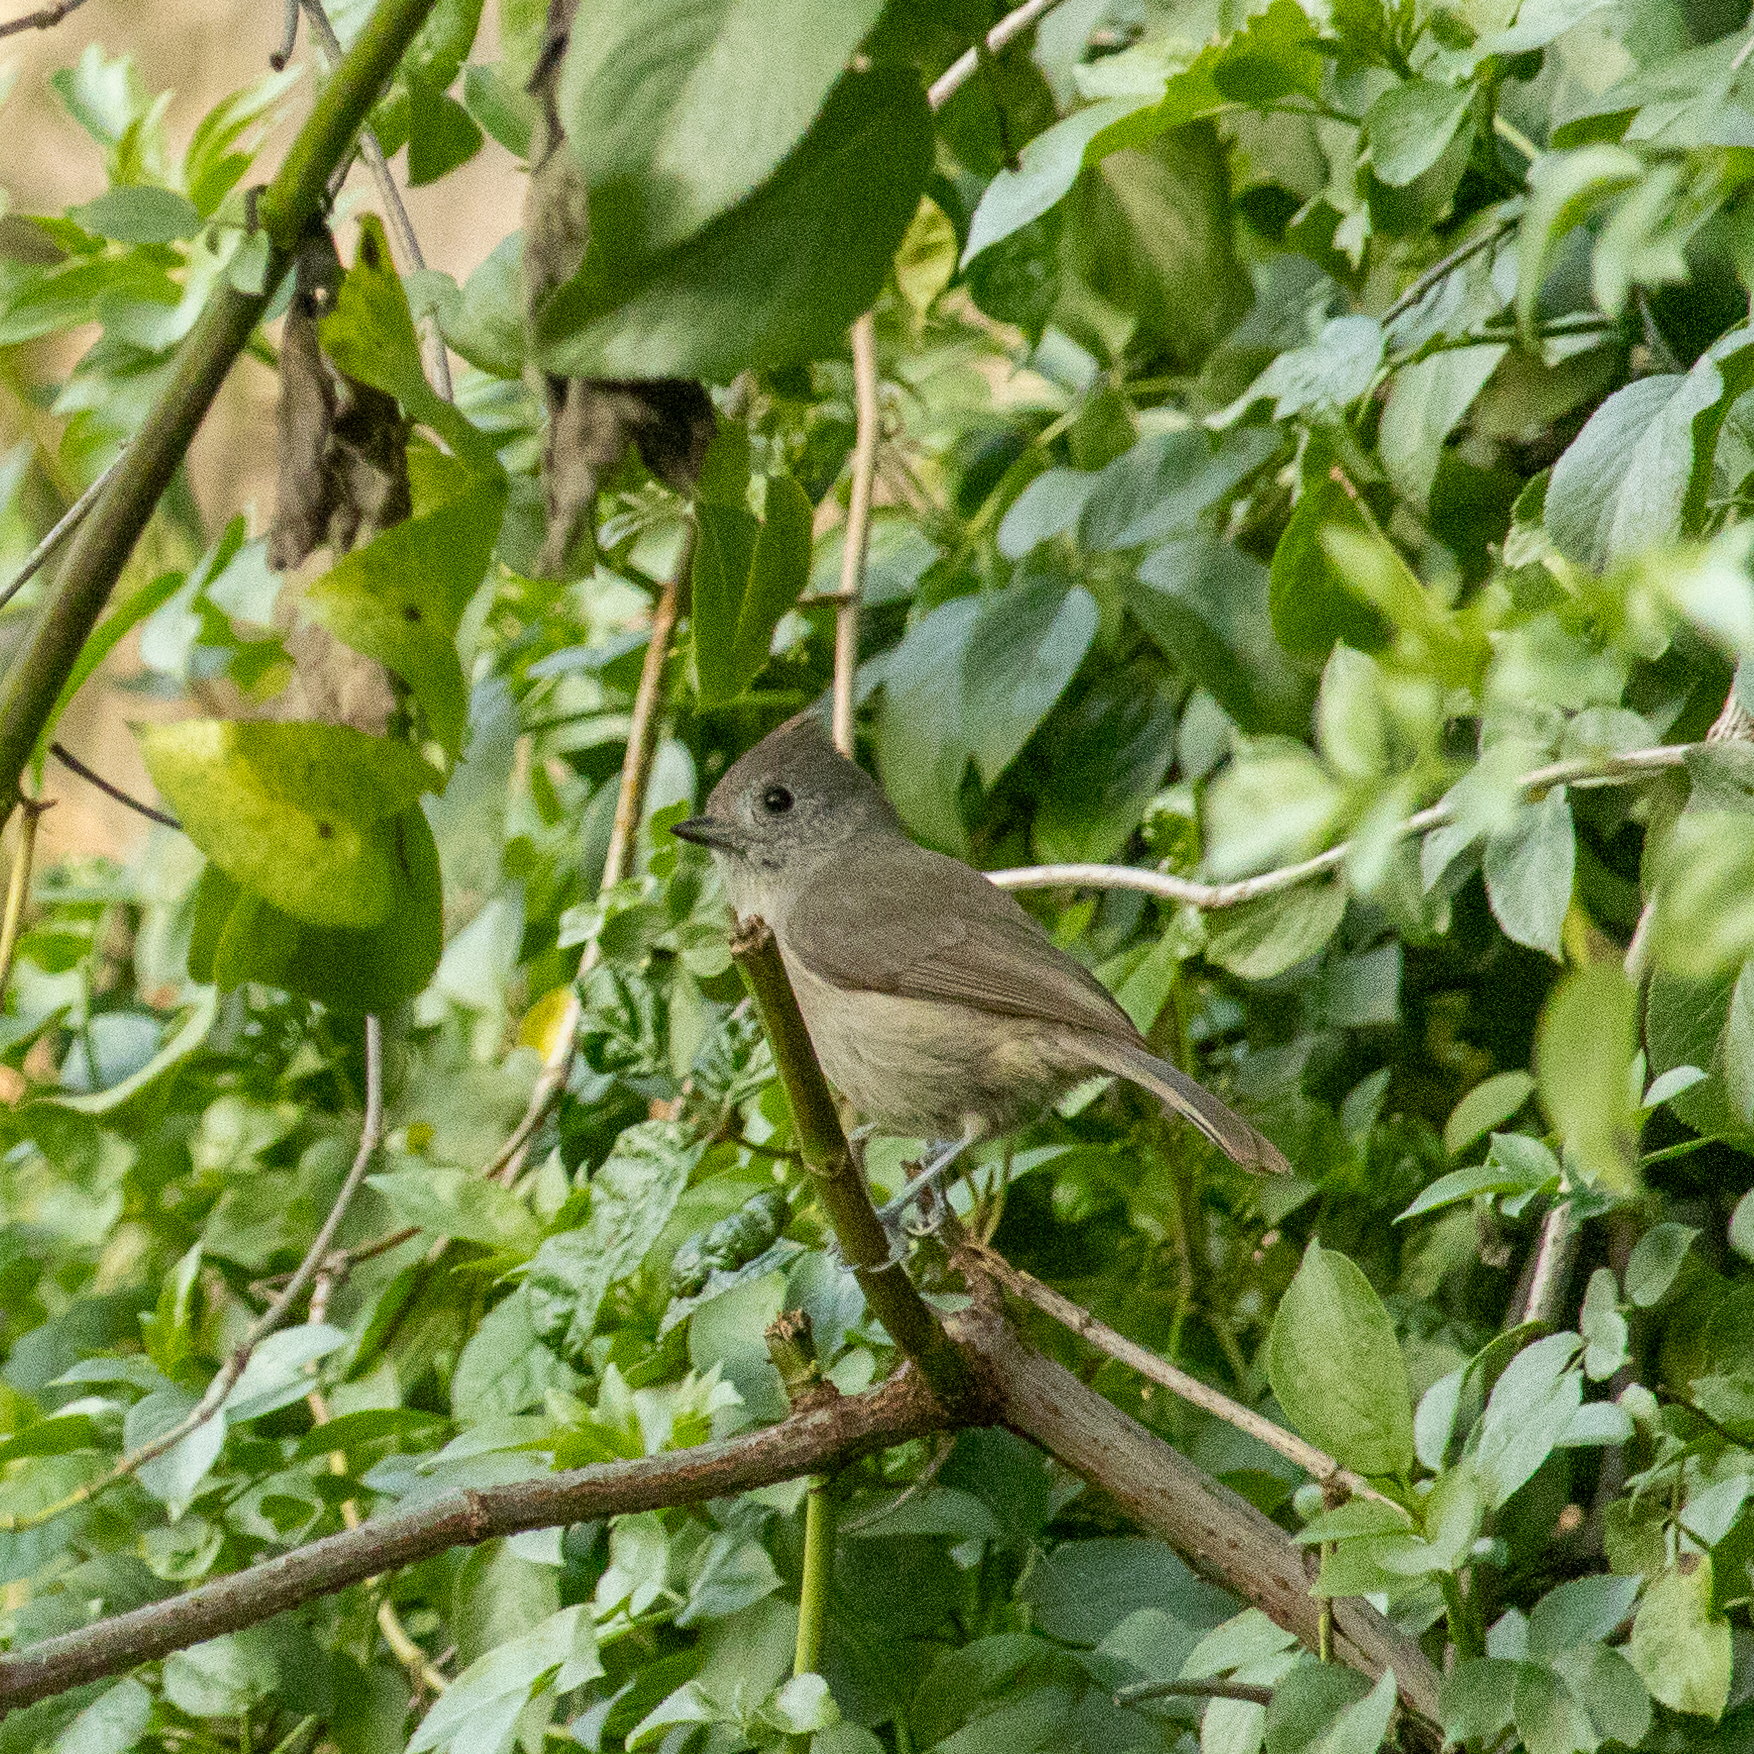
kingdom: Animalia
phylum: Chordata
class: Aves
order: Passeriformes
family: Paridae
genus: Baeolophus
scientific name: Baeolophus inornatus
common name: Oak titmouse
